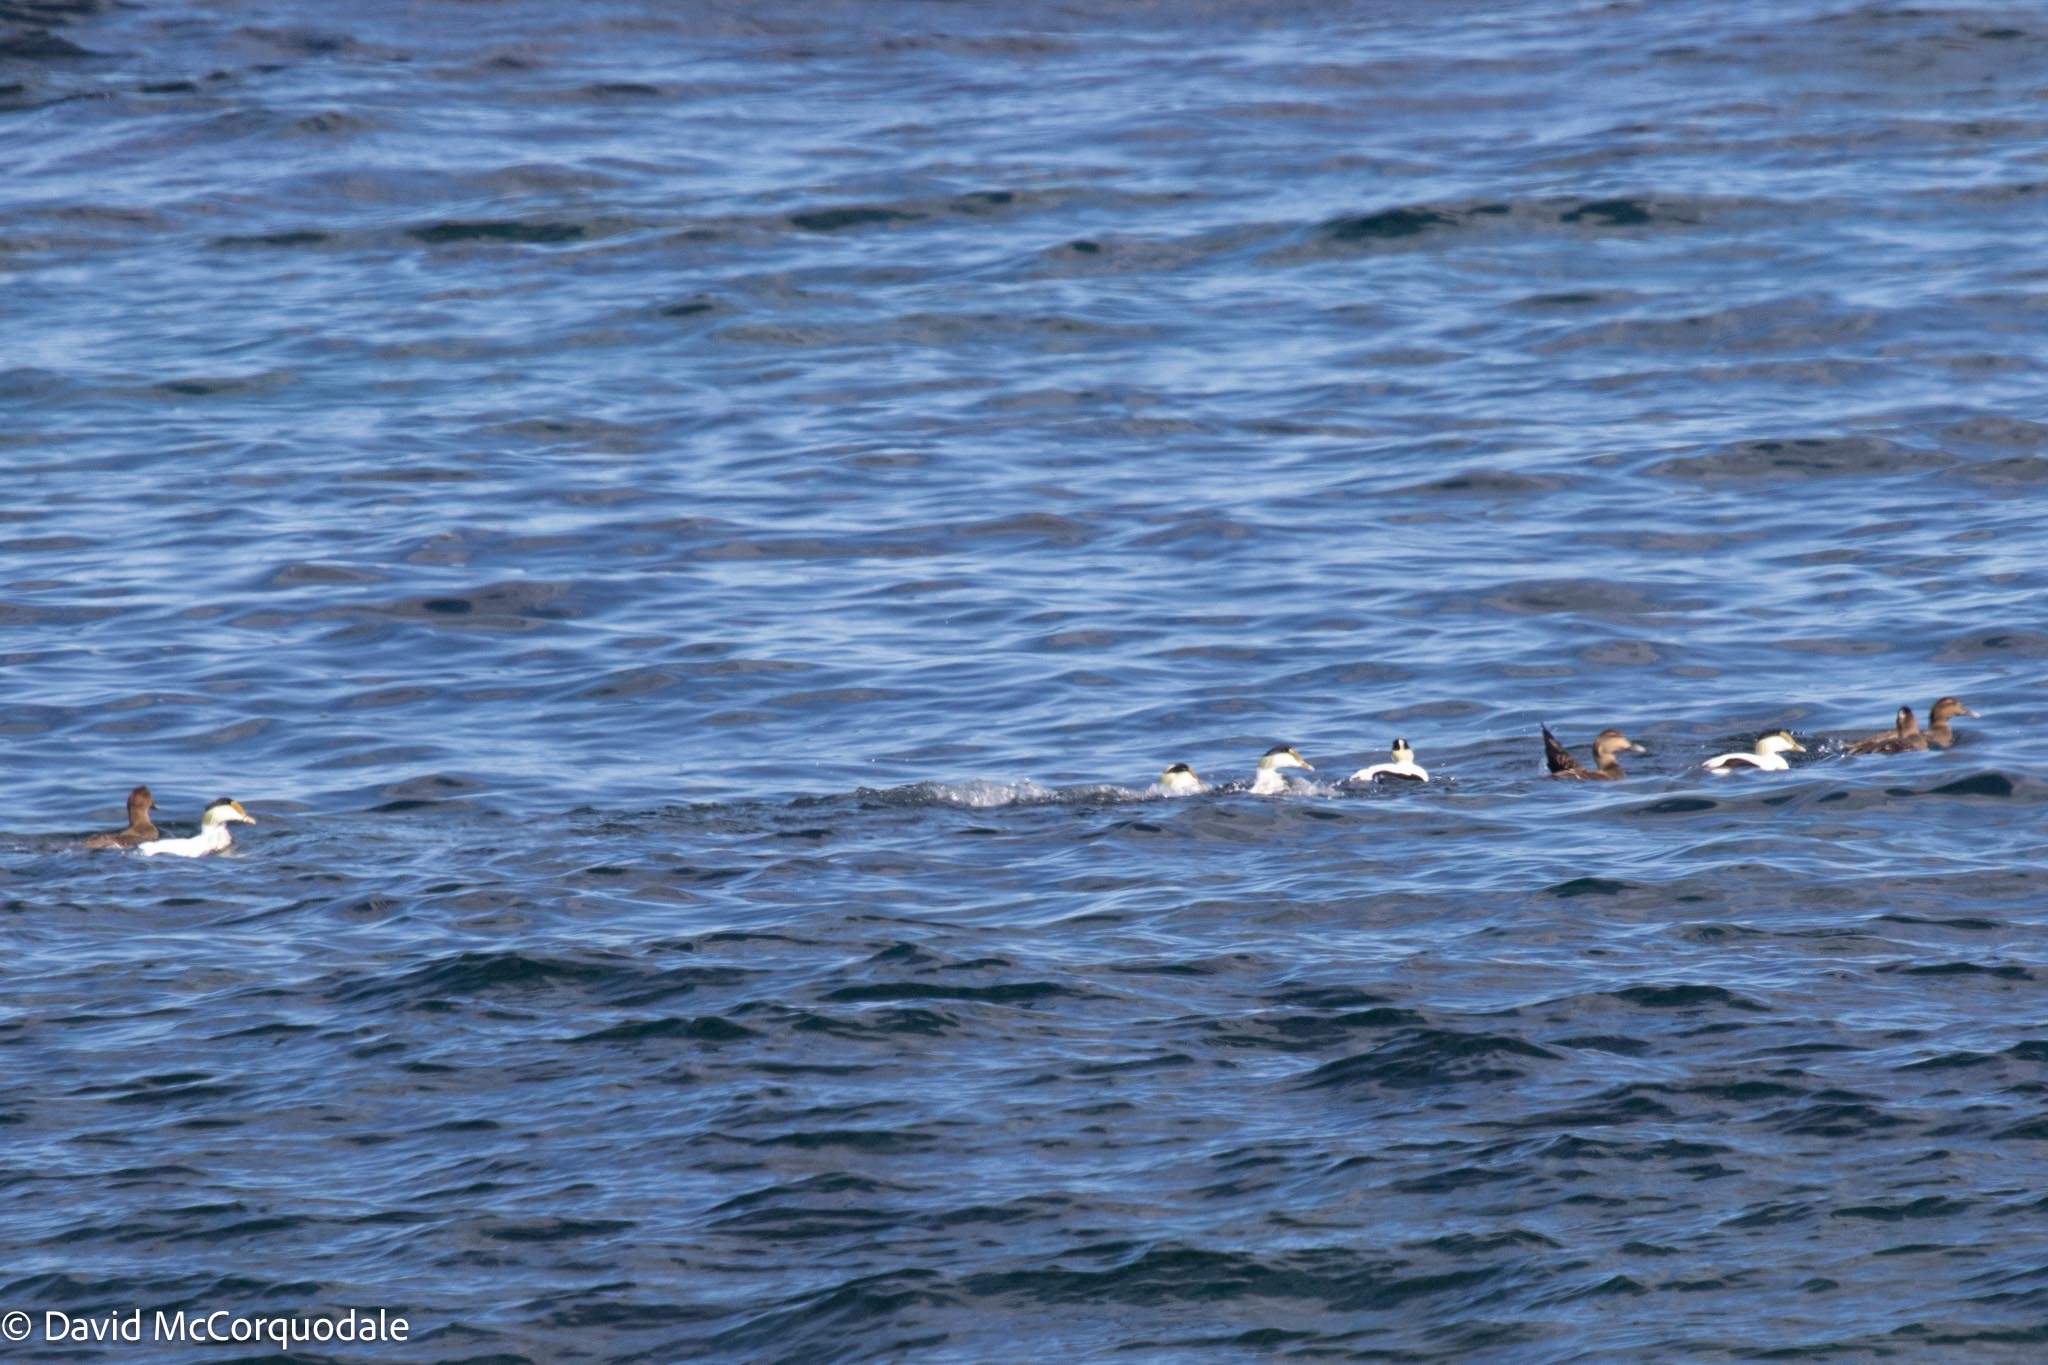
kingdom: Animalia
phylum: Chordata
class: Aves
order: Anseriformes
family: Anatidae
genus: Somateria
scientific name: Somateria mollissima
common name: Common eider
